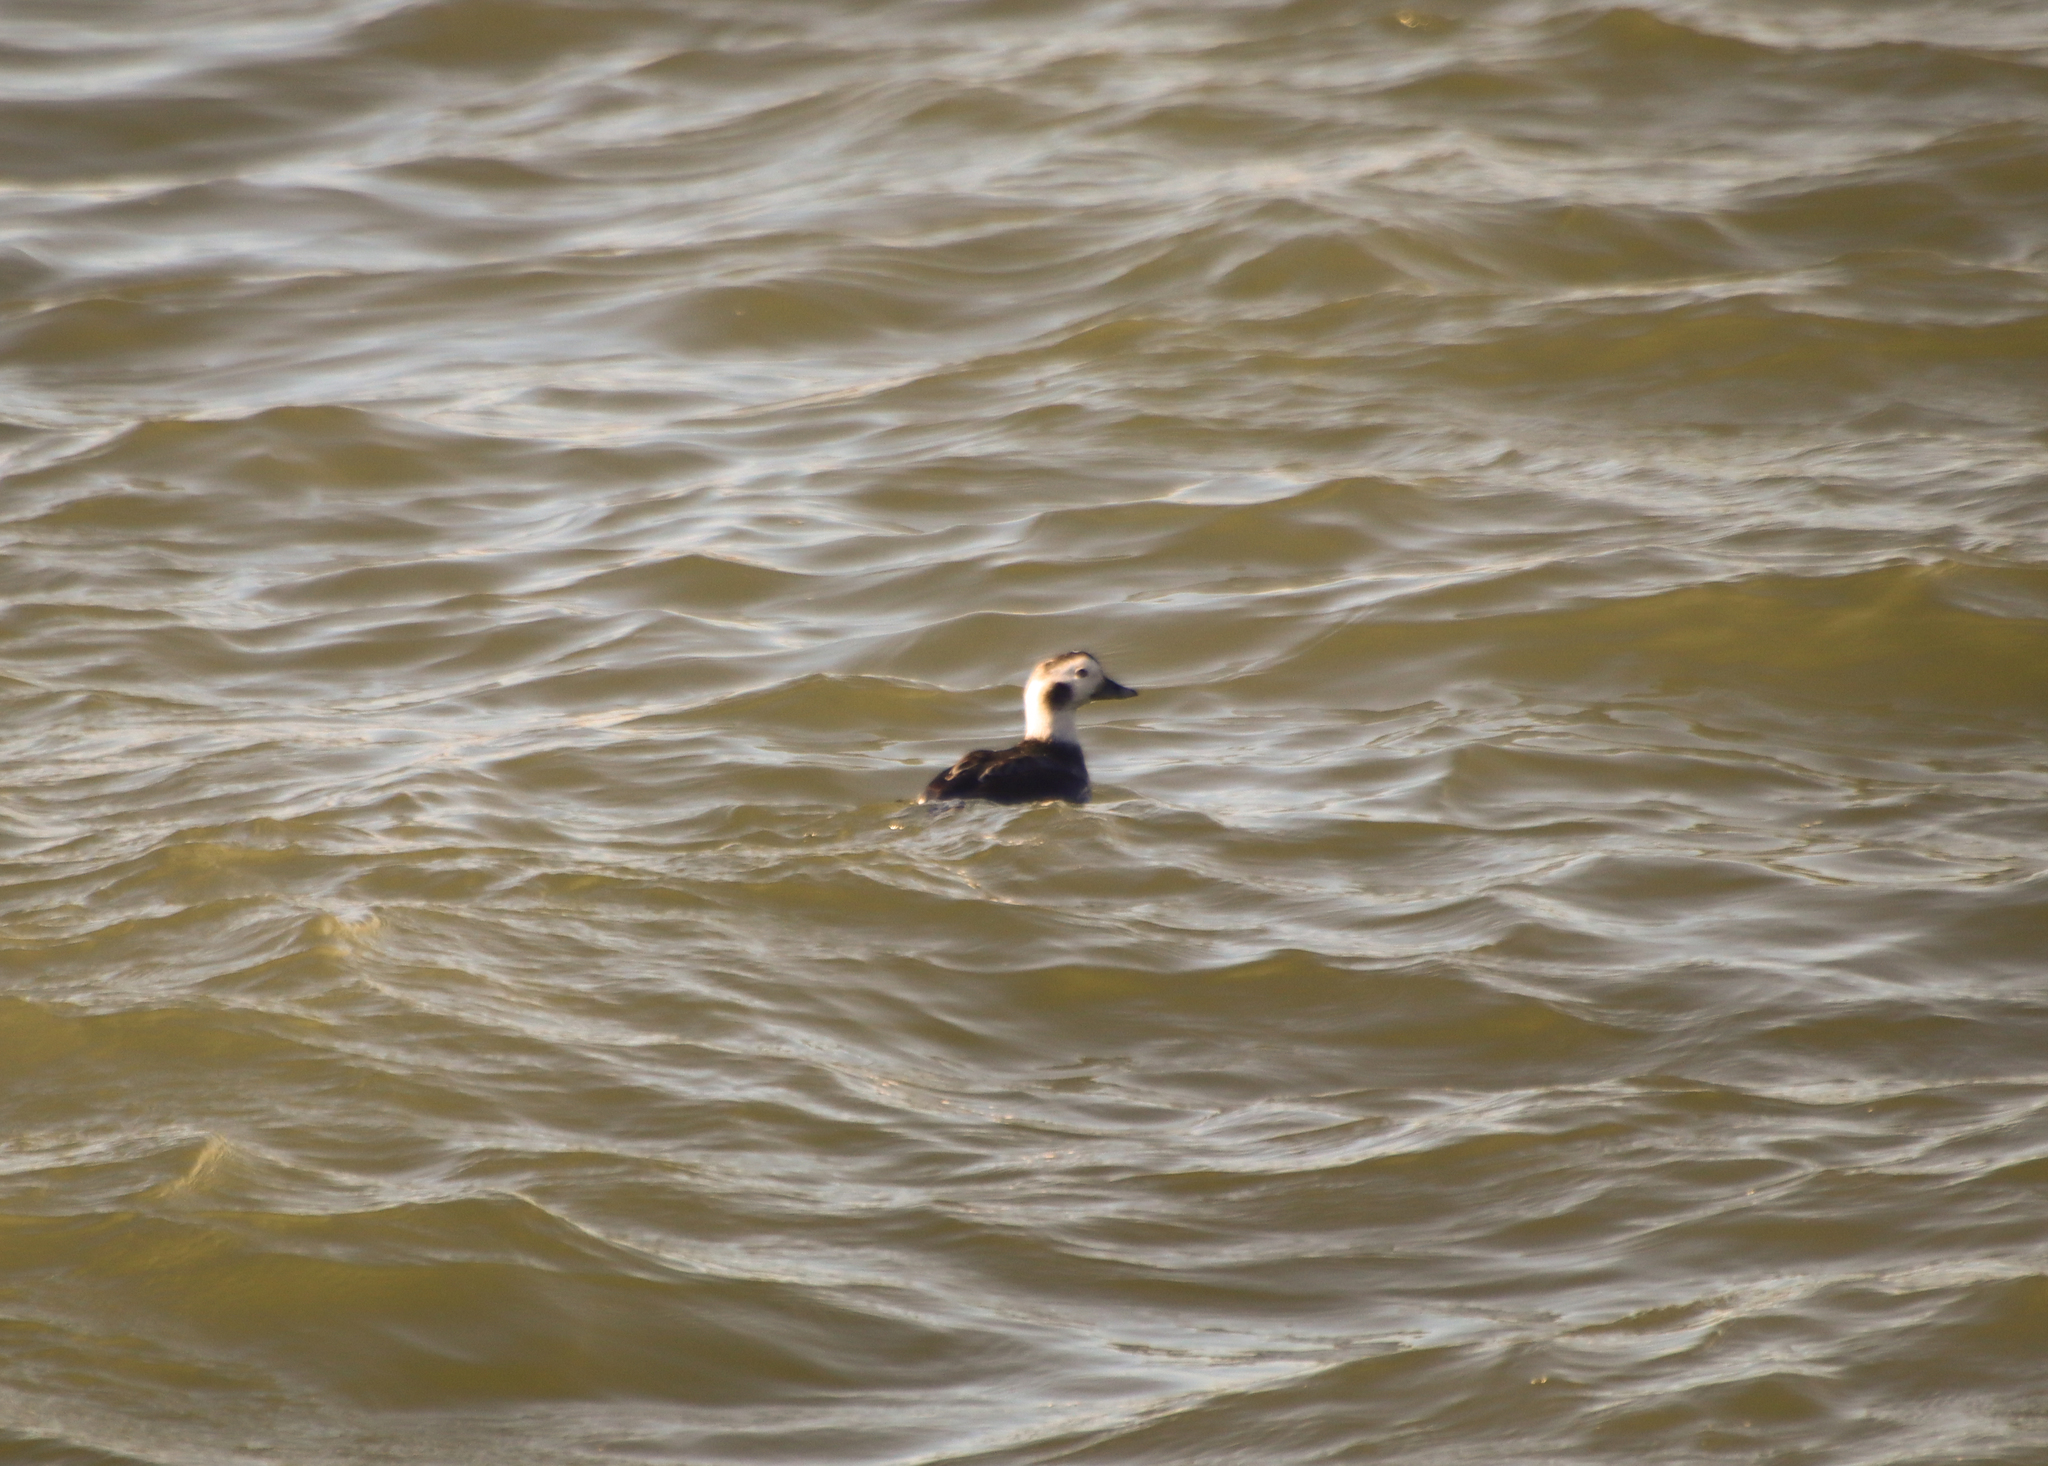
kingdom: Animalia
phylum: Chordata
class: Aves
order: Anseriformes
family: Anatidae
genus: Clangula
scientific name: Clangula hyemalis
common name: Long-tailed duck
